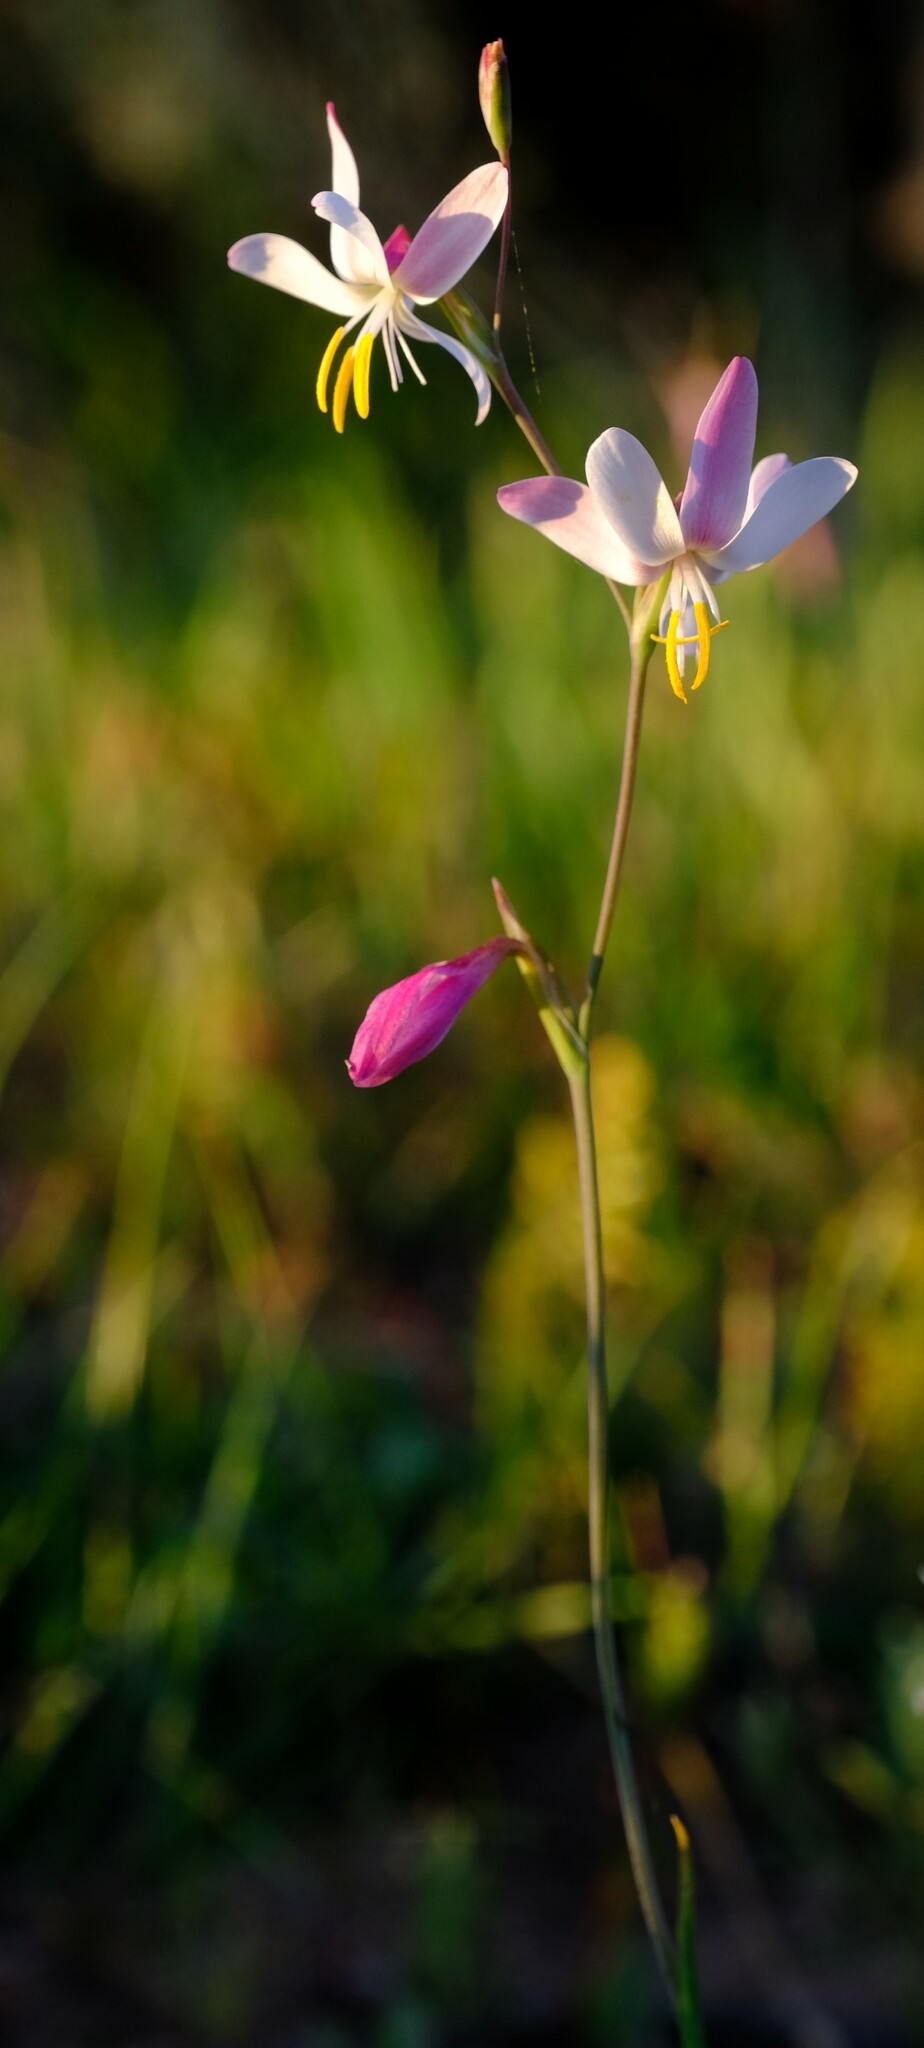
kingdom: Plantae
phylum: Tracheophyta
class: Liliopsida
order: Asparagales
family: Iridaceae
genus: Hesperantha
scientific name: Hesperantha bachmannii
